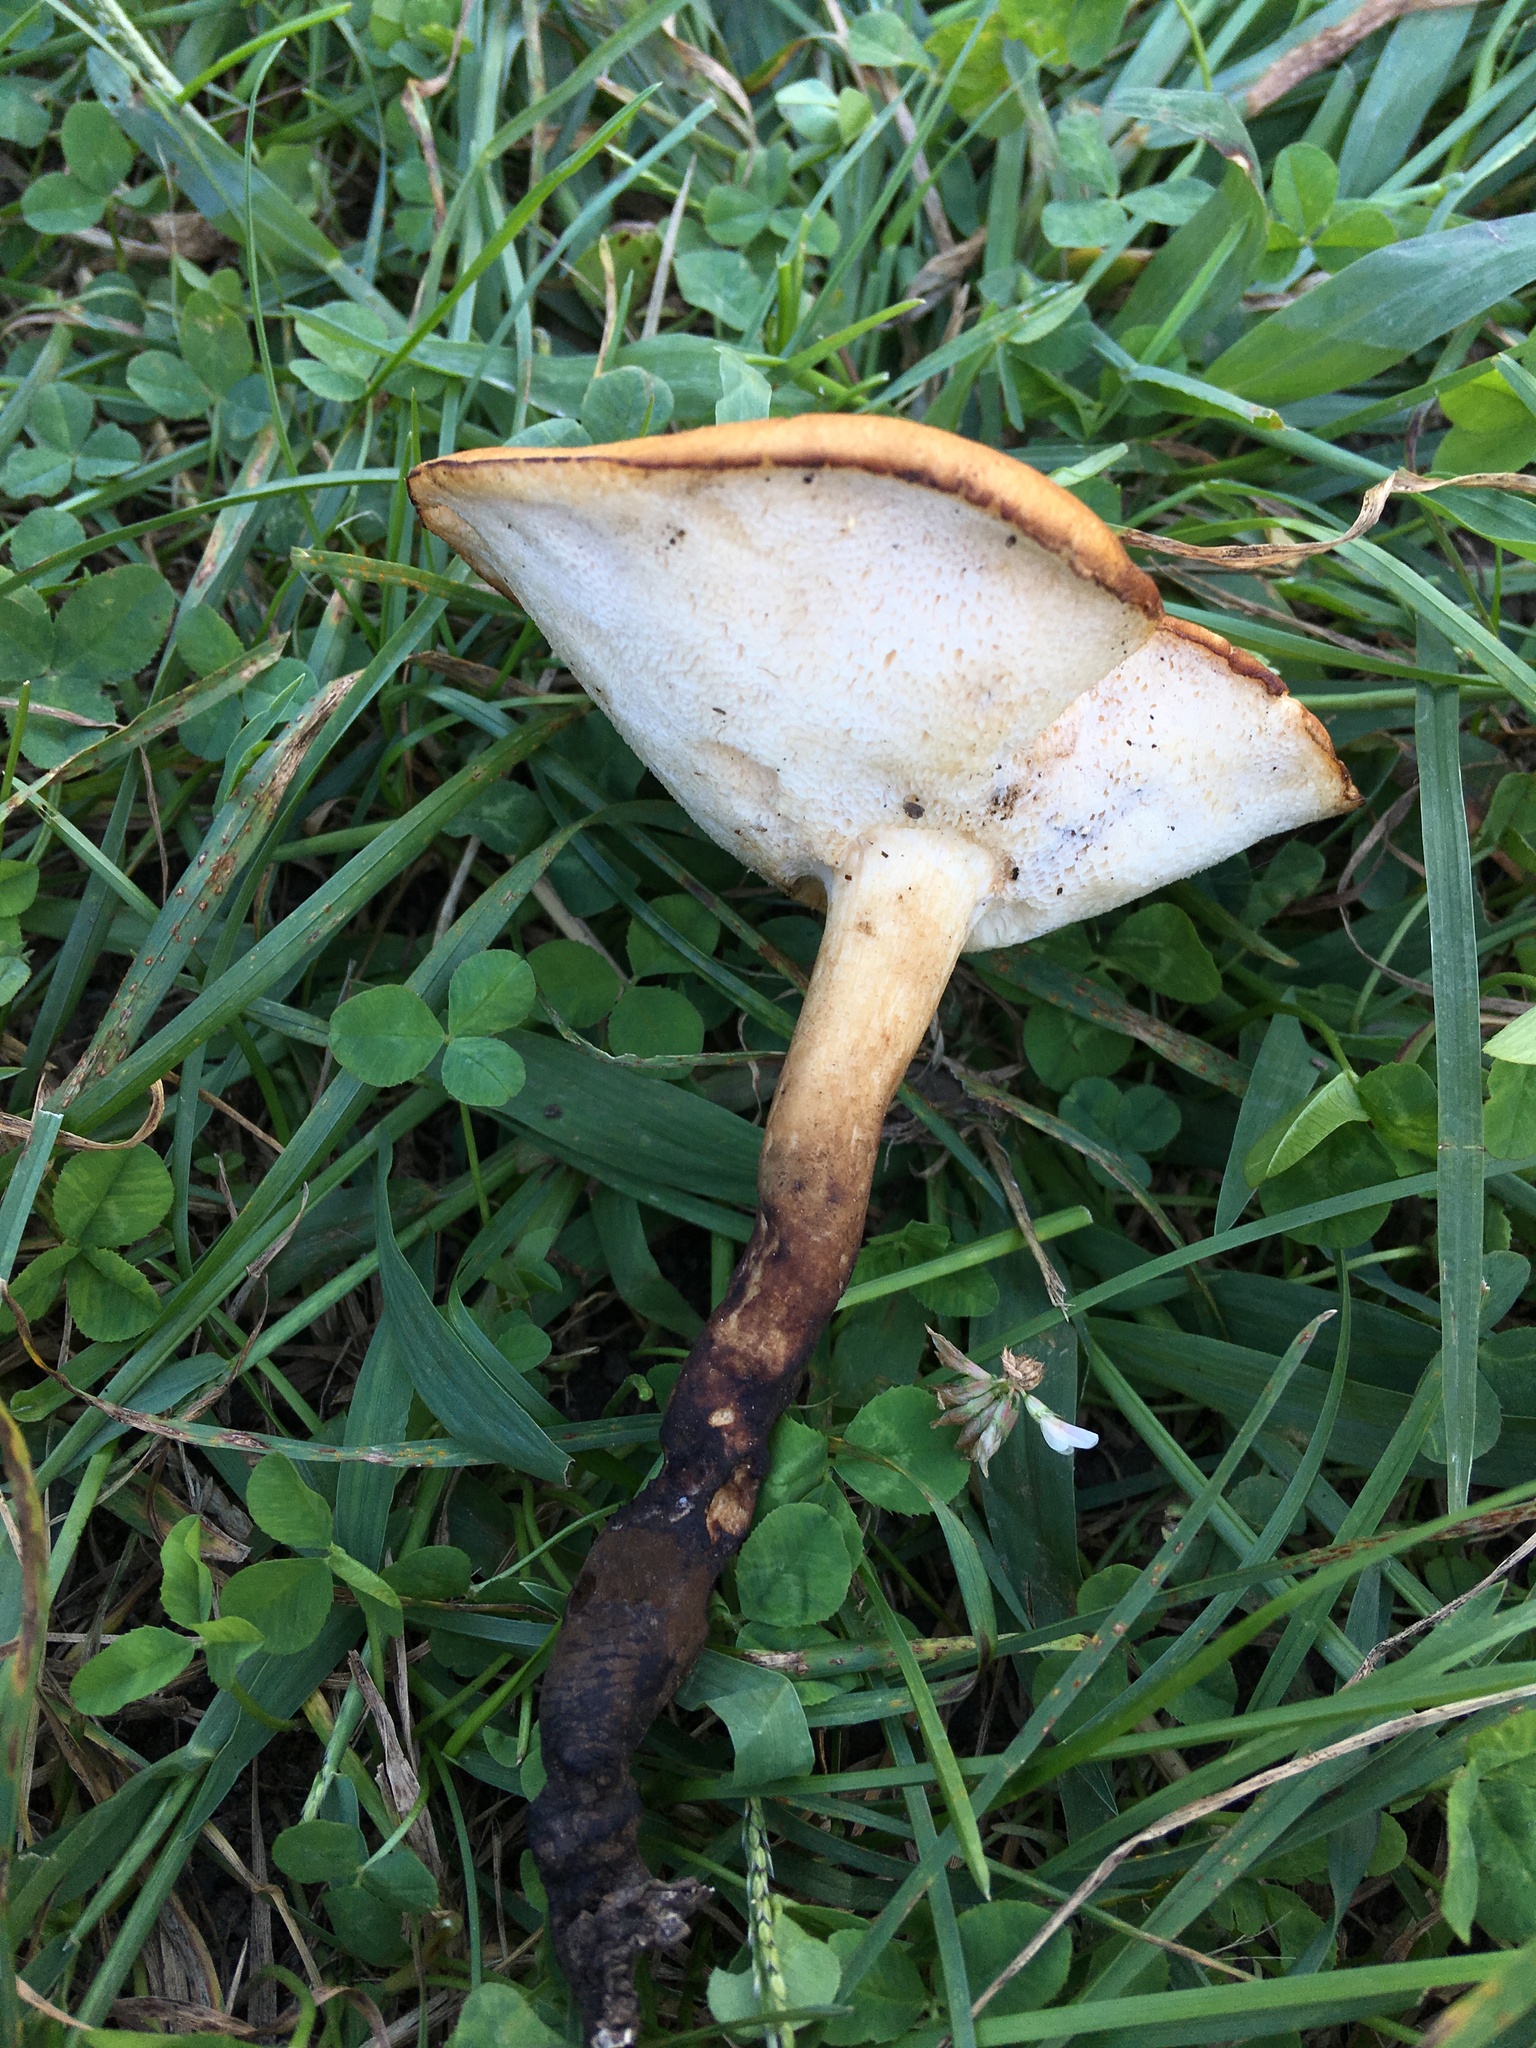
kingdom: Fungi
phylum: Basidiomycota
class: Agaricomycetes
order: Polyporales
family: Polyporaceae
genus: Polyporus
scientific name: Polyporus radicatus
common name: Rooting polypore
